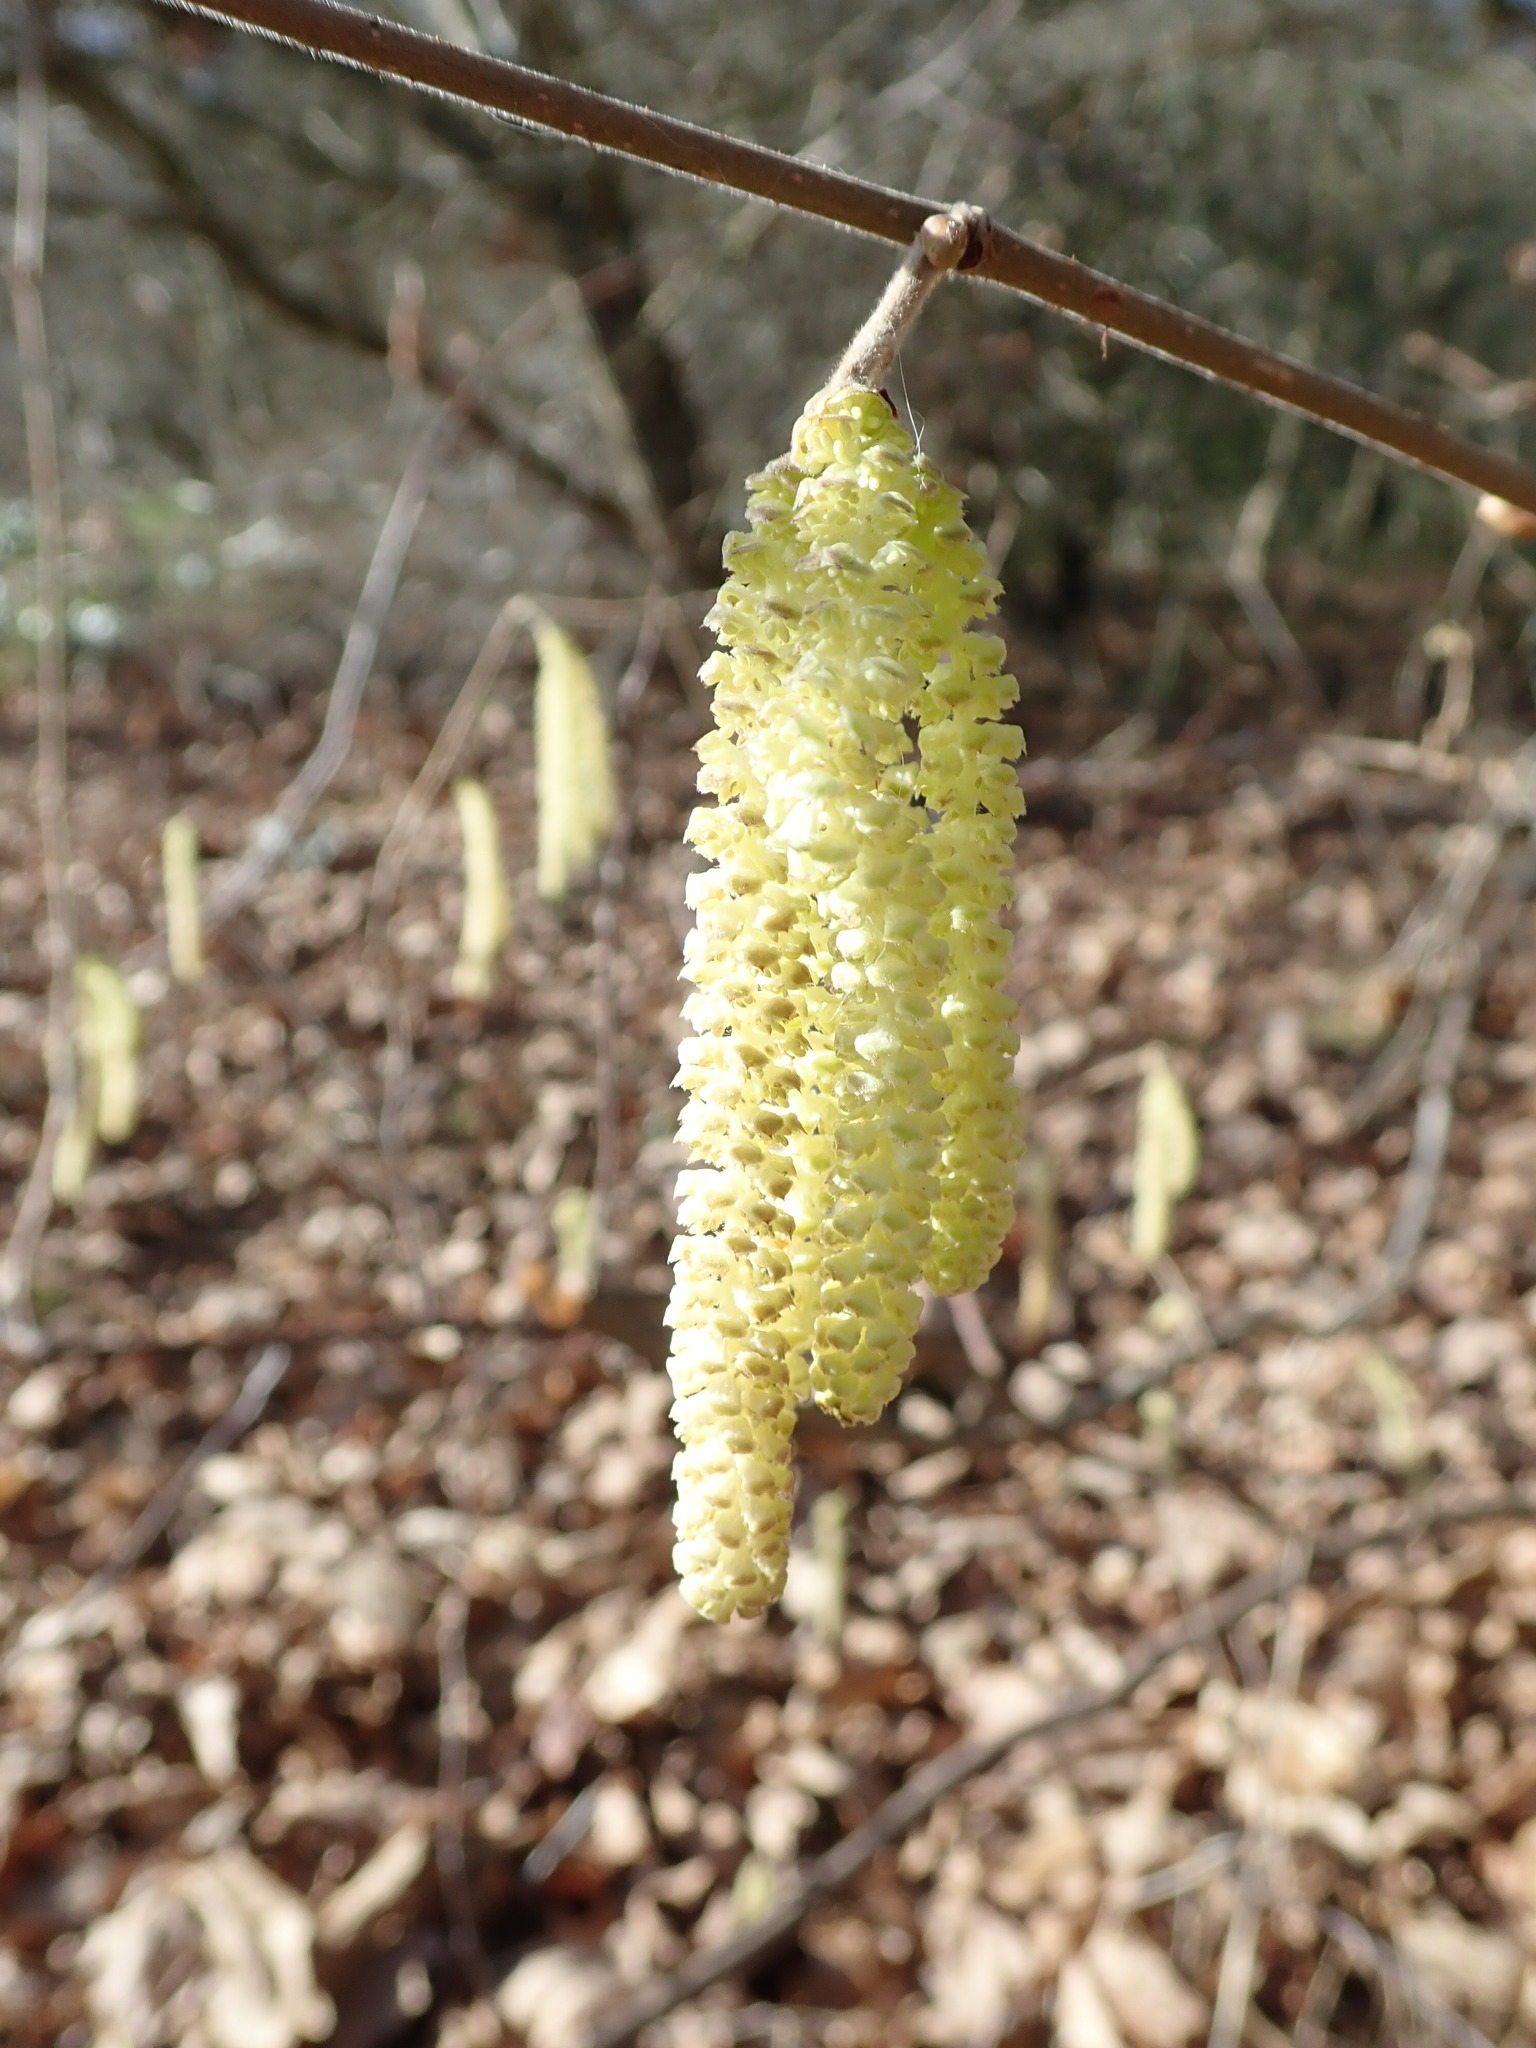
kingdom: Plantae
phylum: Tracheophyta
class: Magnoliopsida
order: Fagales
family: Betulaceae
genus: Corylus
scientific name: Corylus avellana
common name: European hazel
